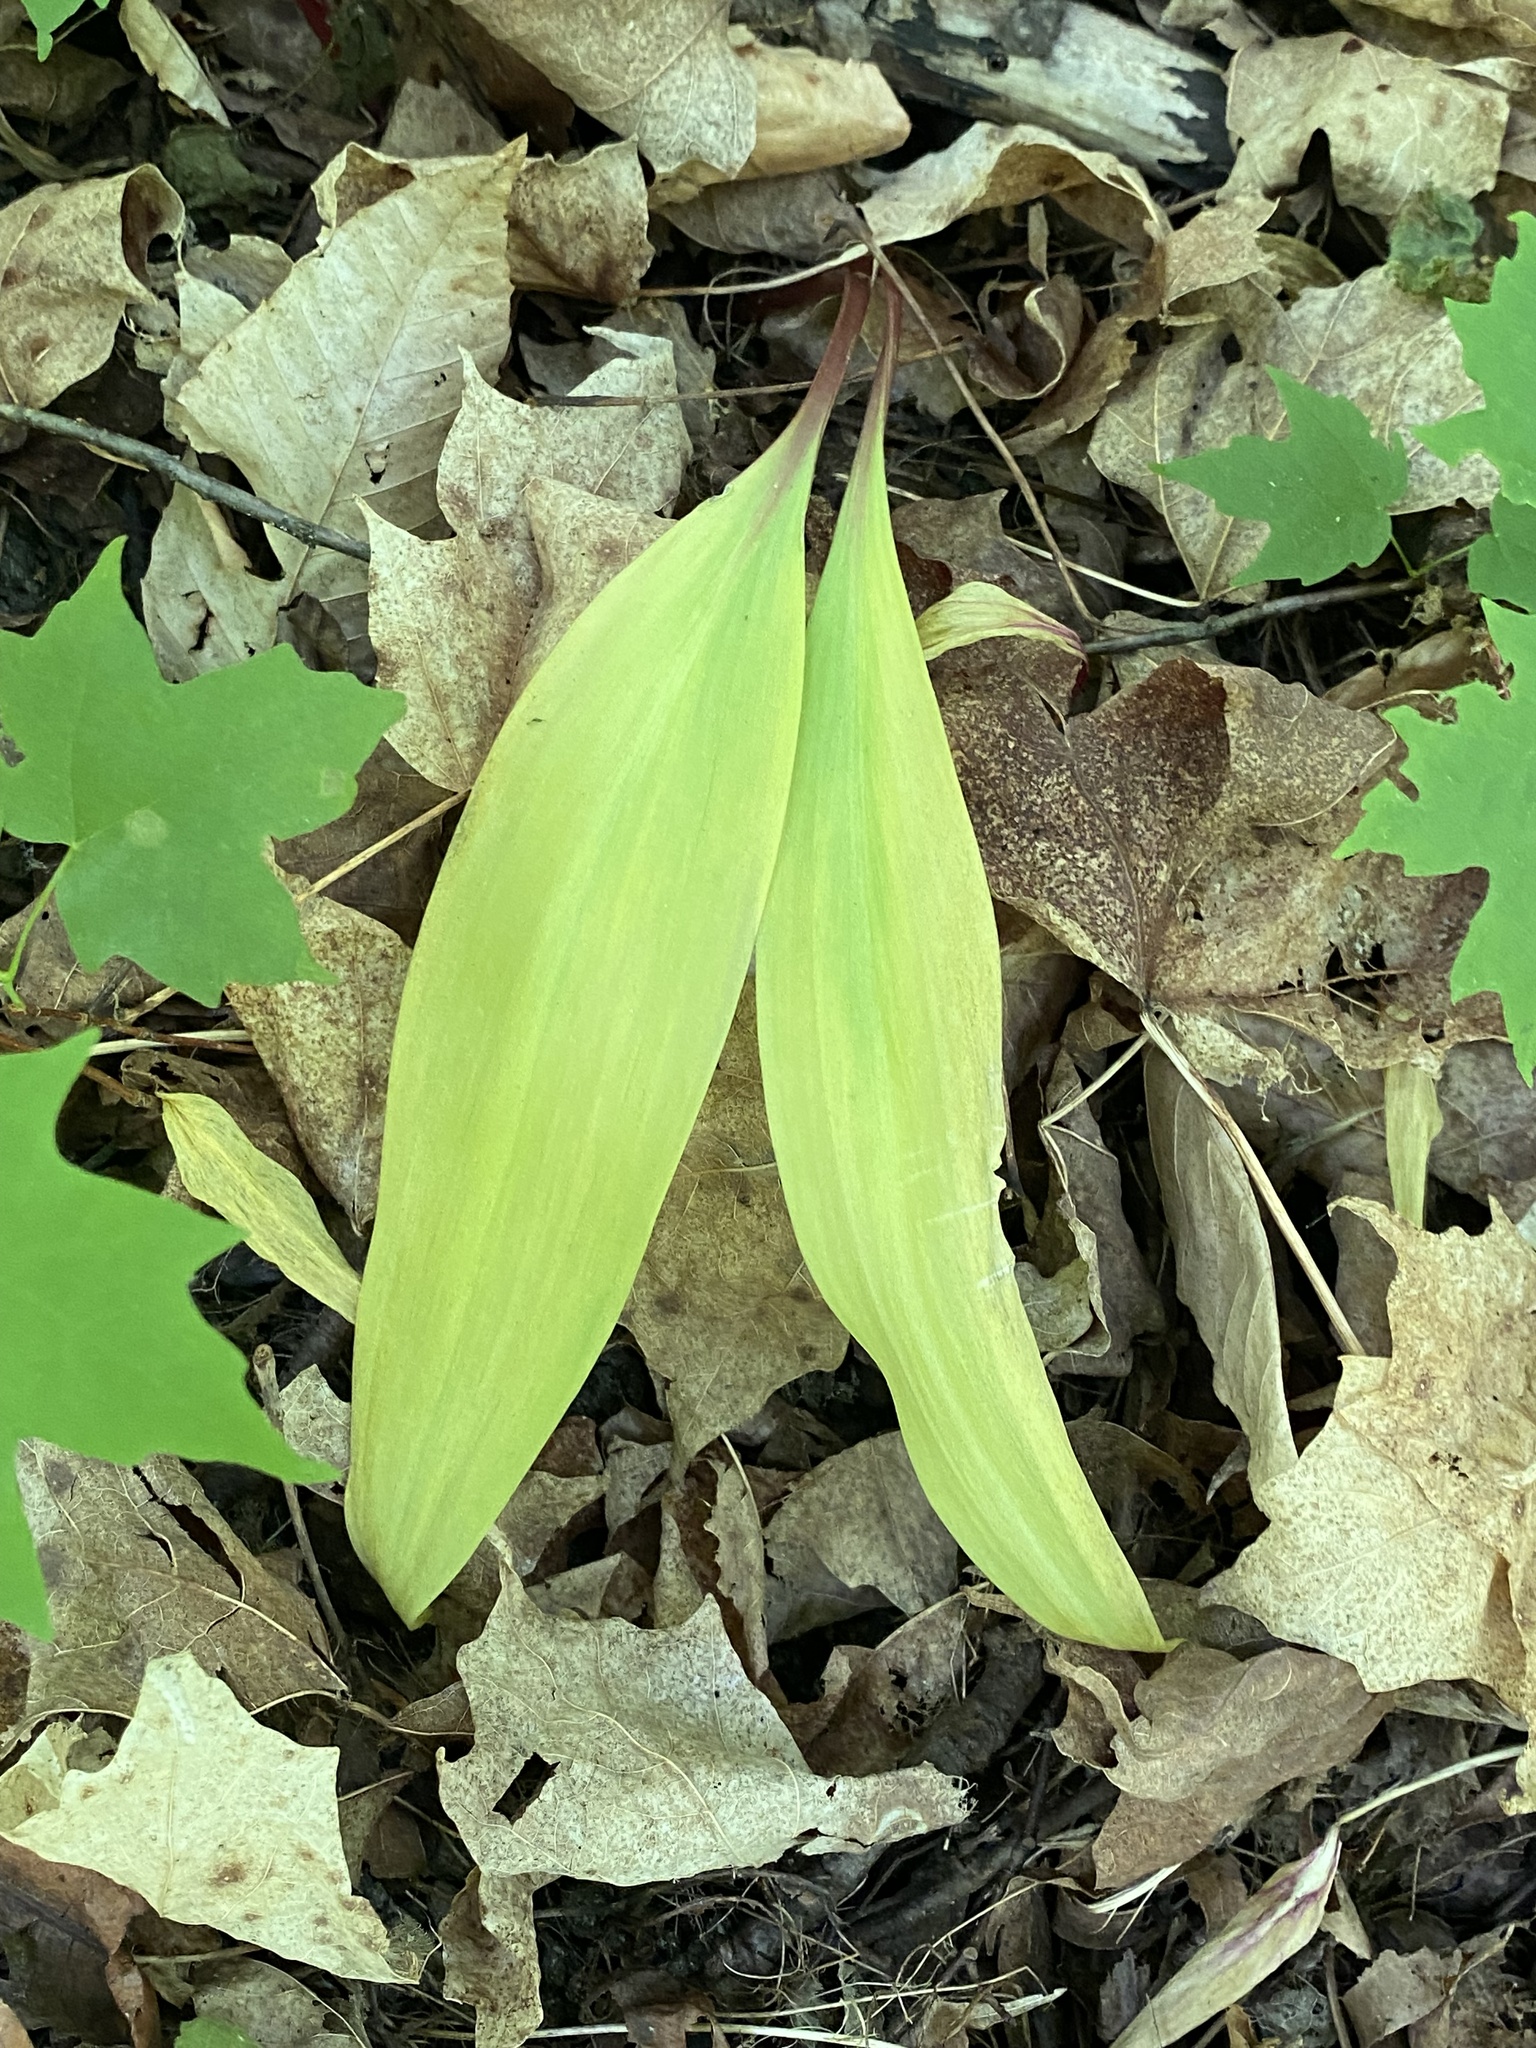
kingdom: Plantae
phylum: Tracheophyta
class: Liliopsida
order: Asparagales
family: Amaryllidaceae
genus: Allium
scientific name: Allium tricoccum
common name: Ramp
